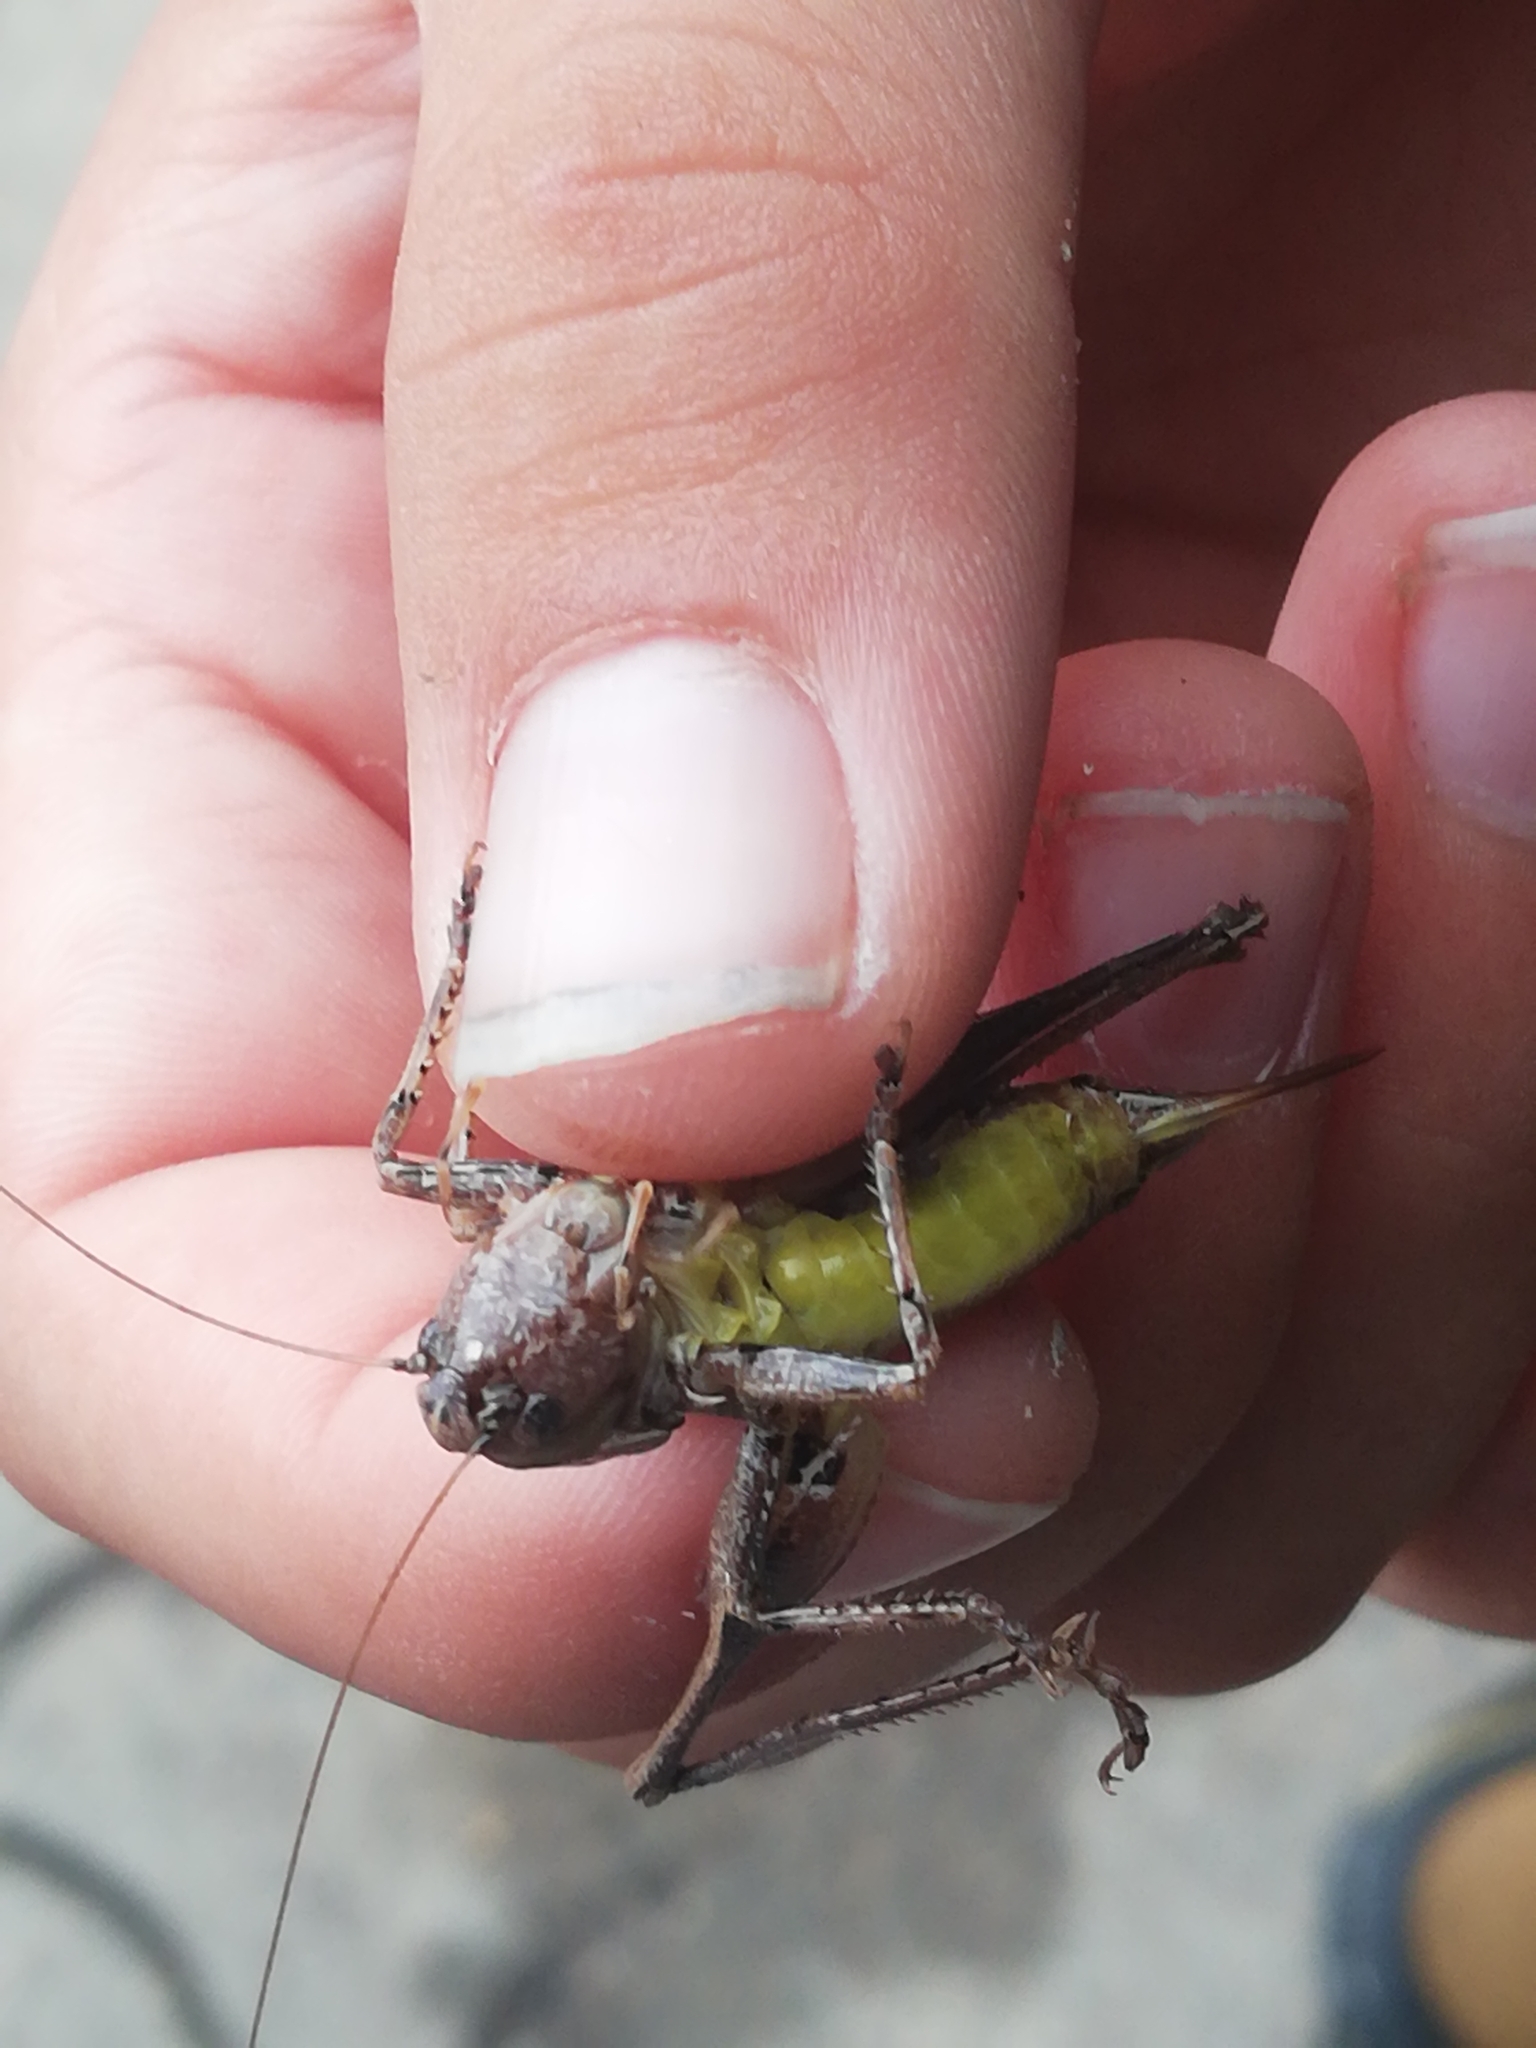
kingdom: Animalia
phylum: Arthropoda
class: Insecta
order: Orthoptera
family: Tettigoniidae
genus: Pholidoptera
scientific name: Pholidoptera griseoaptera
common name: Dark bush-cricket
